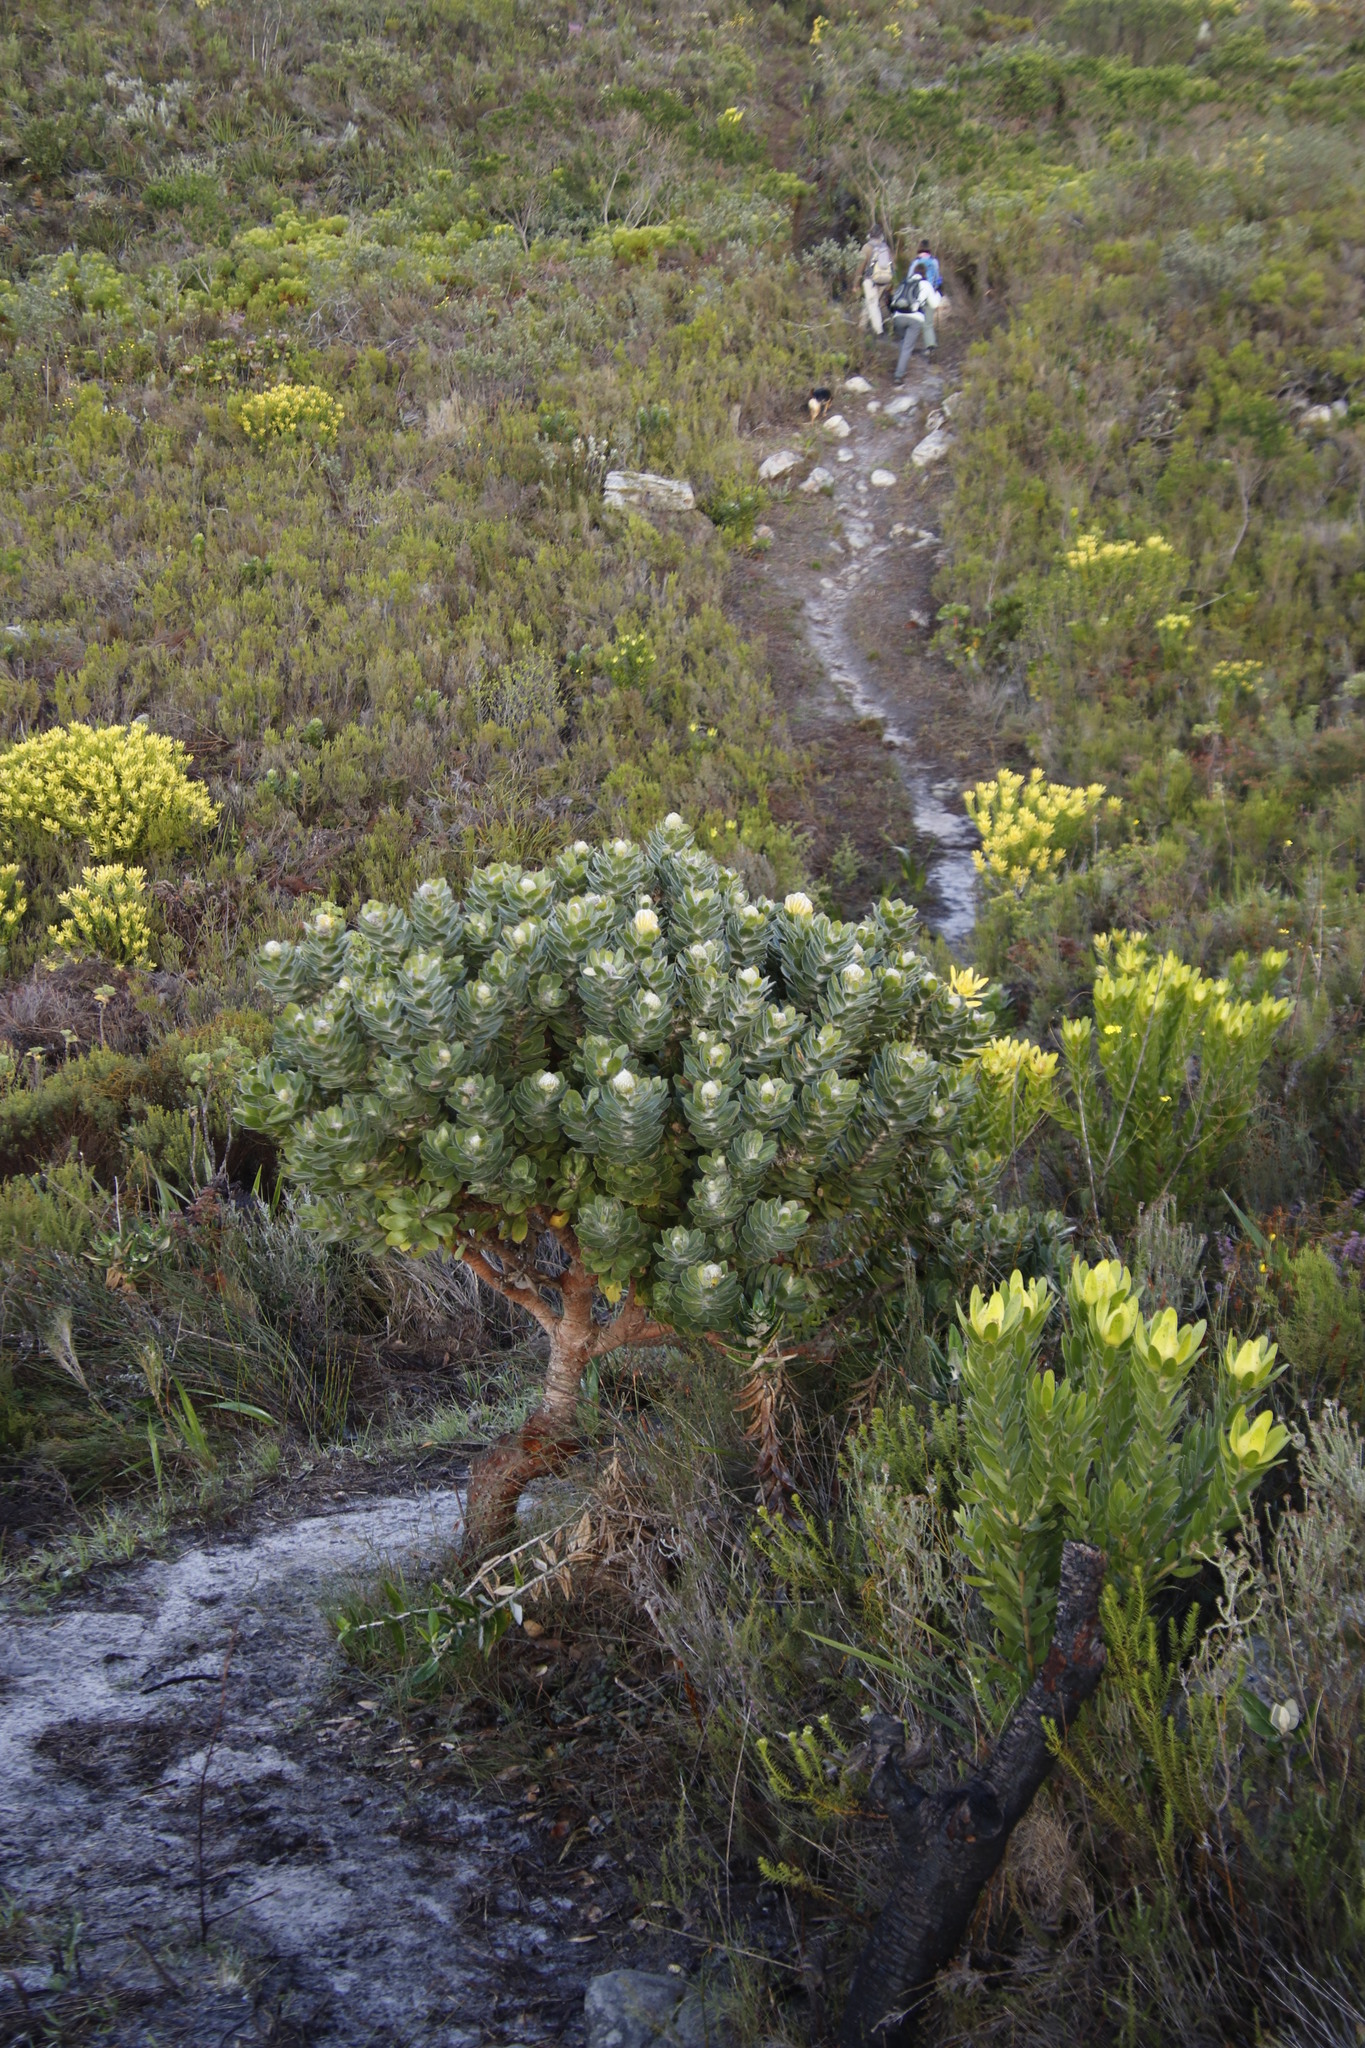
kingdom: Plantae
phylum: Tracheophyta
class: Magnoliopsida
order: Proteales
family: Proteaceae
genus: Leucospermum
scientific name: Leucospermum conocarpodendron
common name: Tree pincushion
